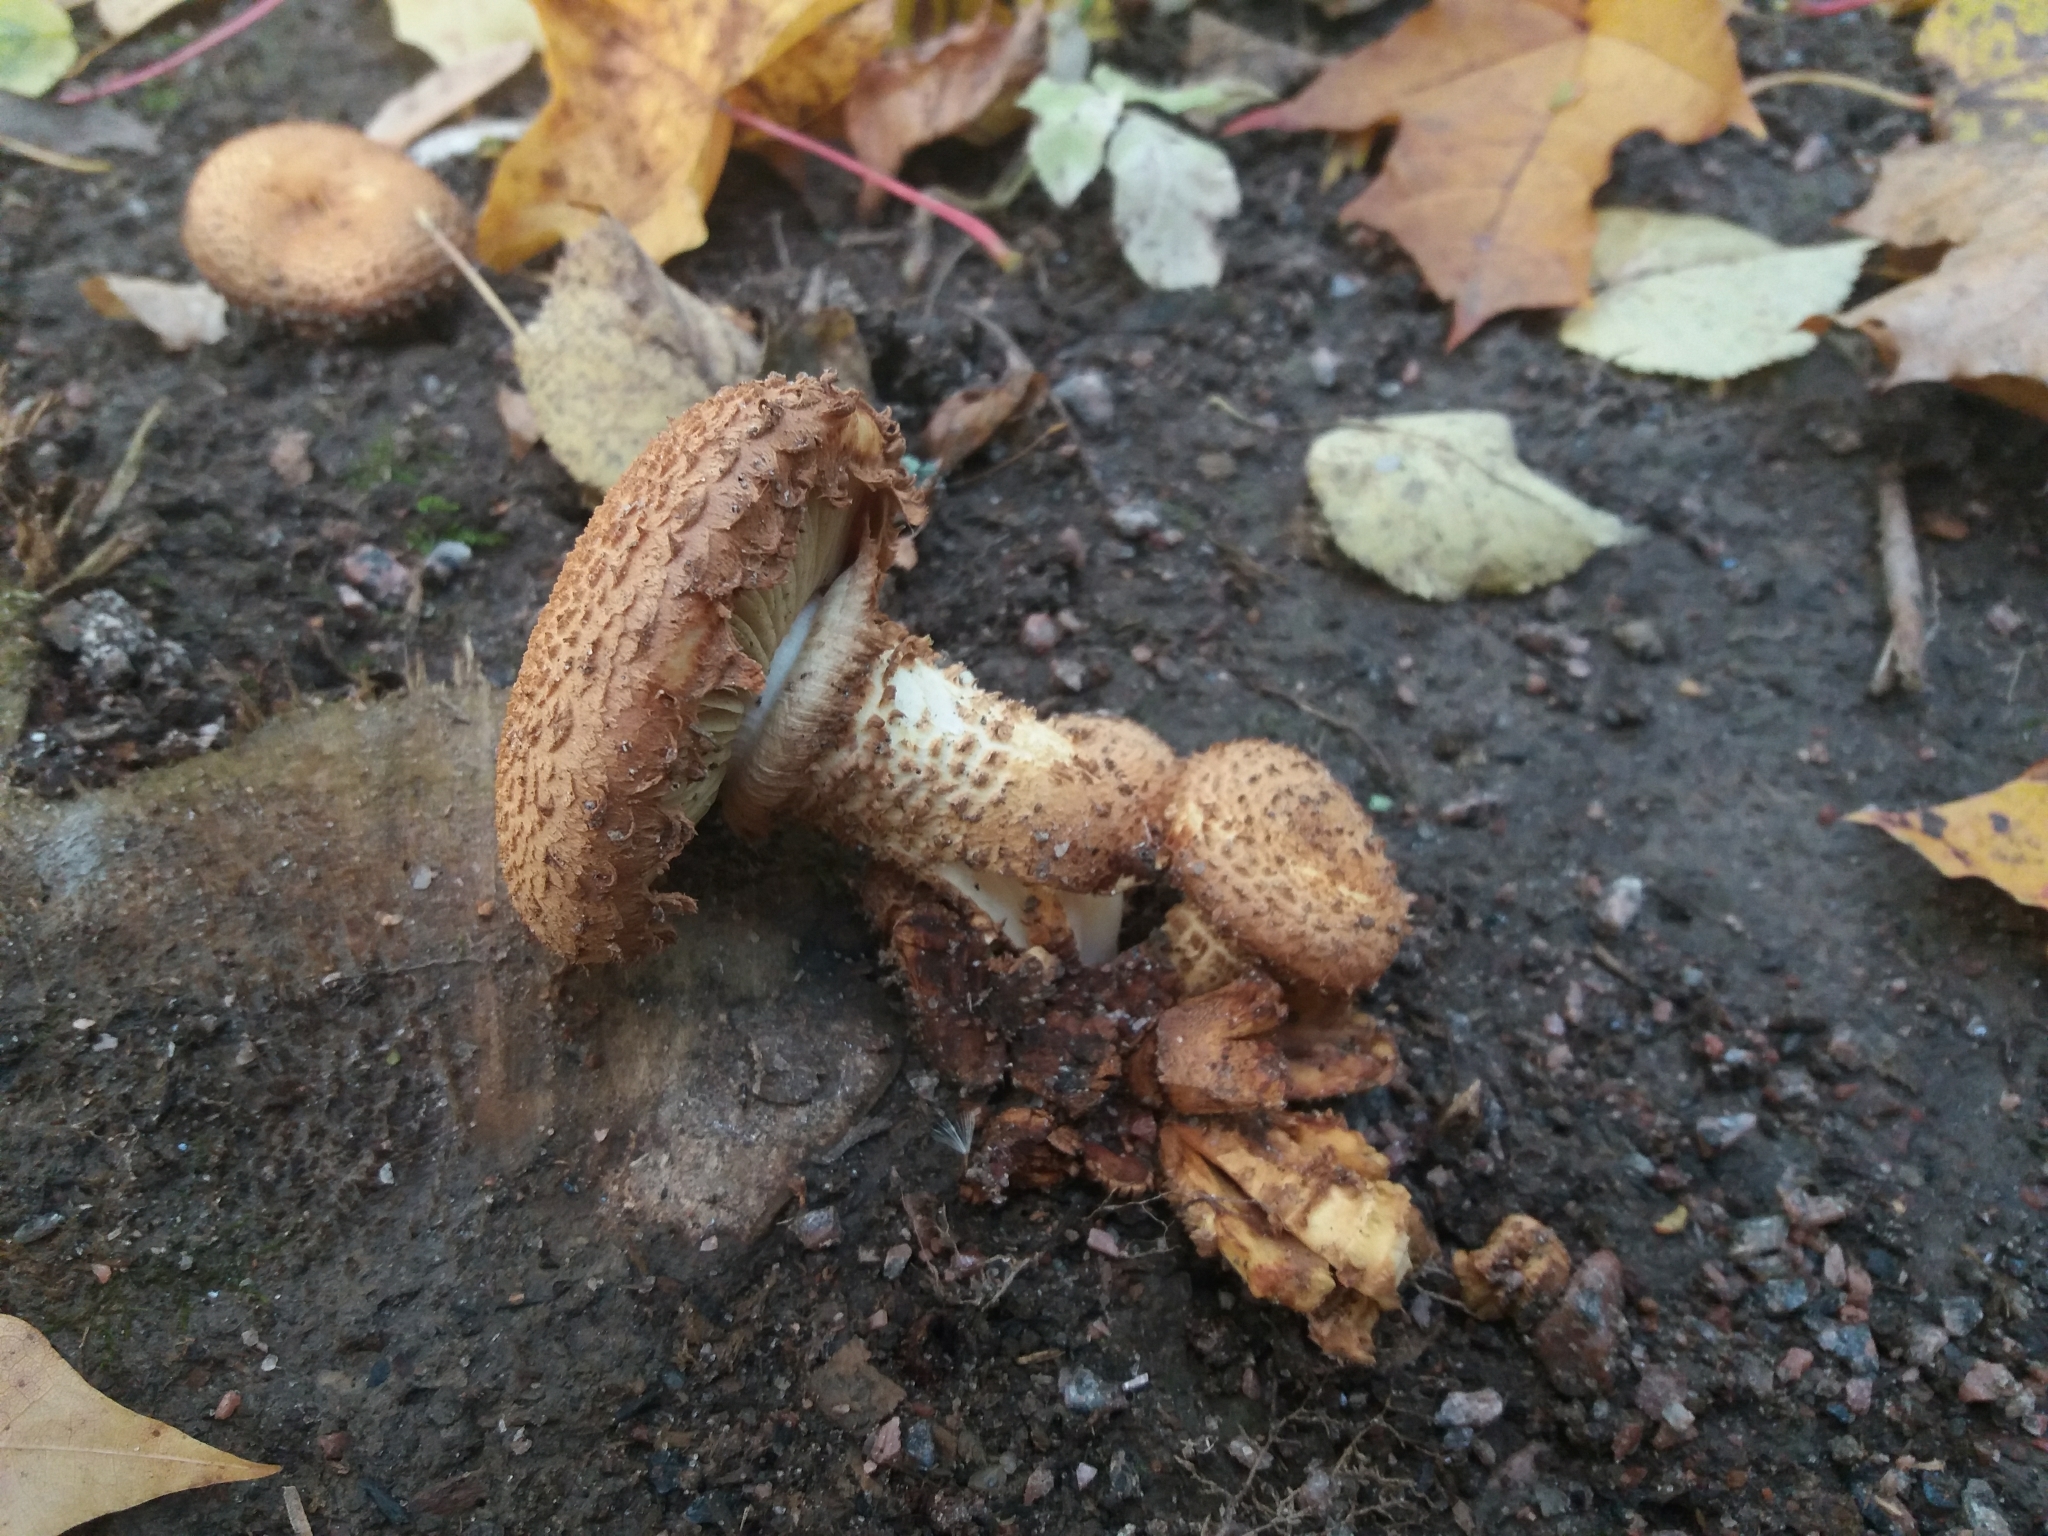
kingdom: Fungi
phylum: Basidiomycota
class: Agaricomycetes
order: Agaricales
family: Strophariaceae
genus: Pholiota
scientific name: Pholiota squarrosa
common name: Shaggy pholiota
